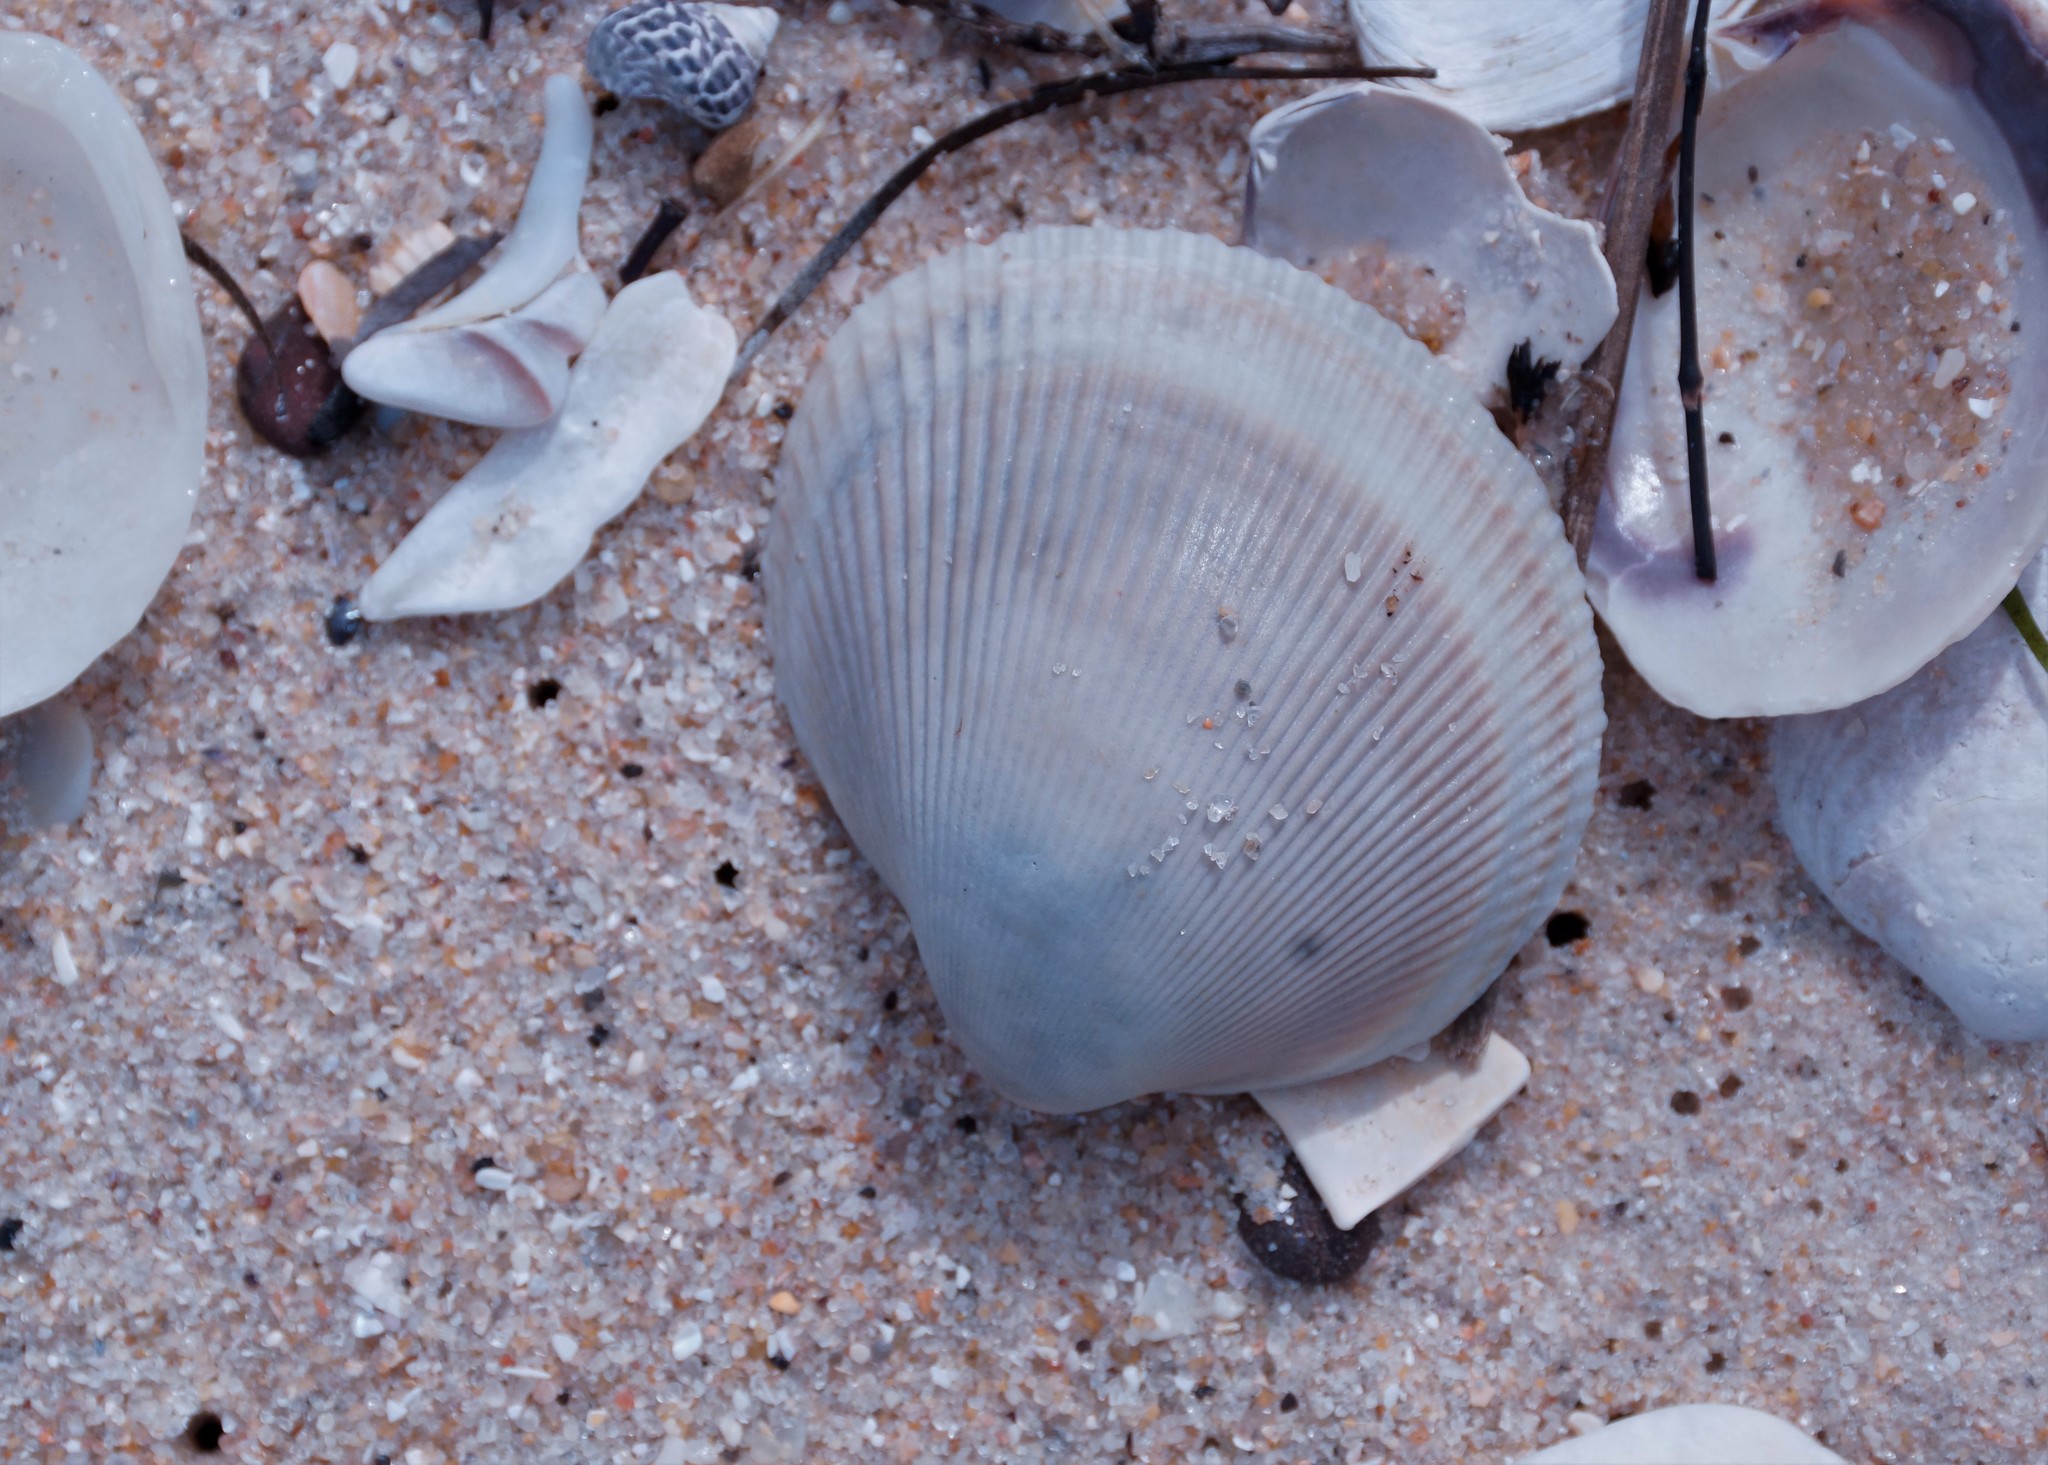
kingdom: Animalia
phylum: Mollusca
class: Bivalvia
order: Cardiida
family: Cardiidae
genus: Fulvia
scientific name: Fulvia tenuicostata
